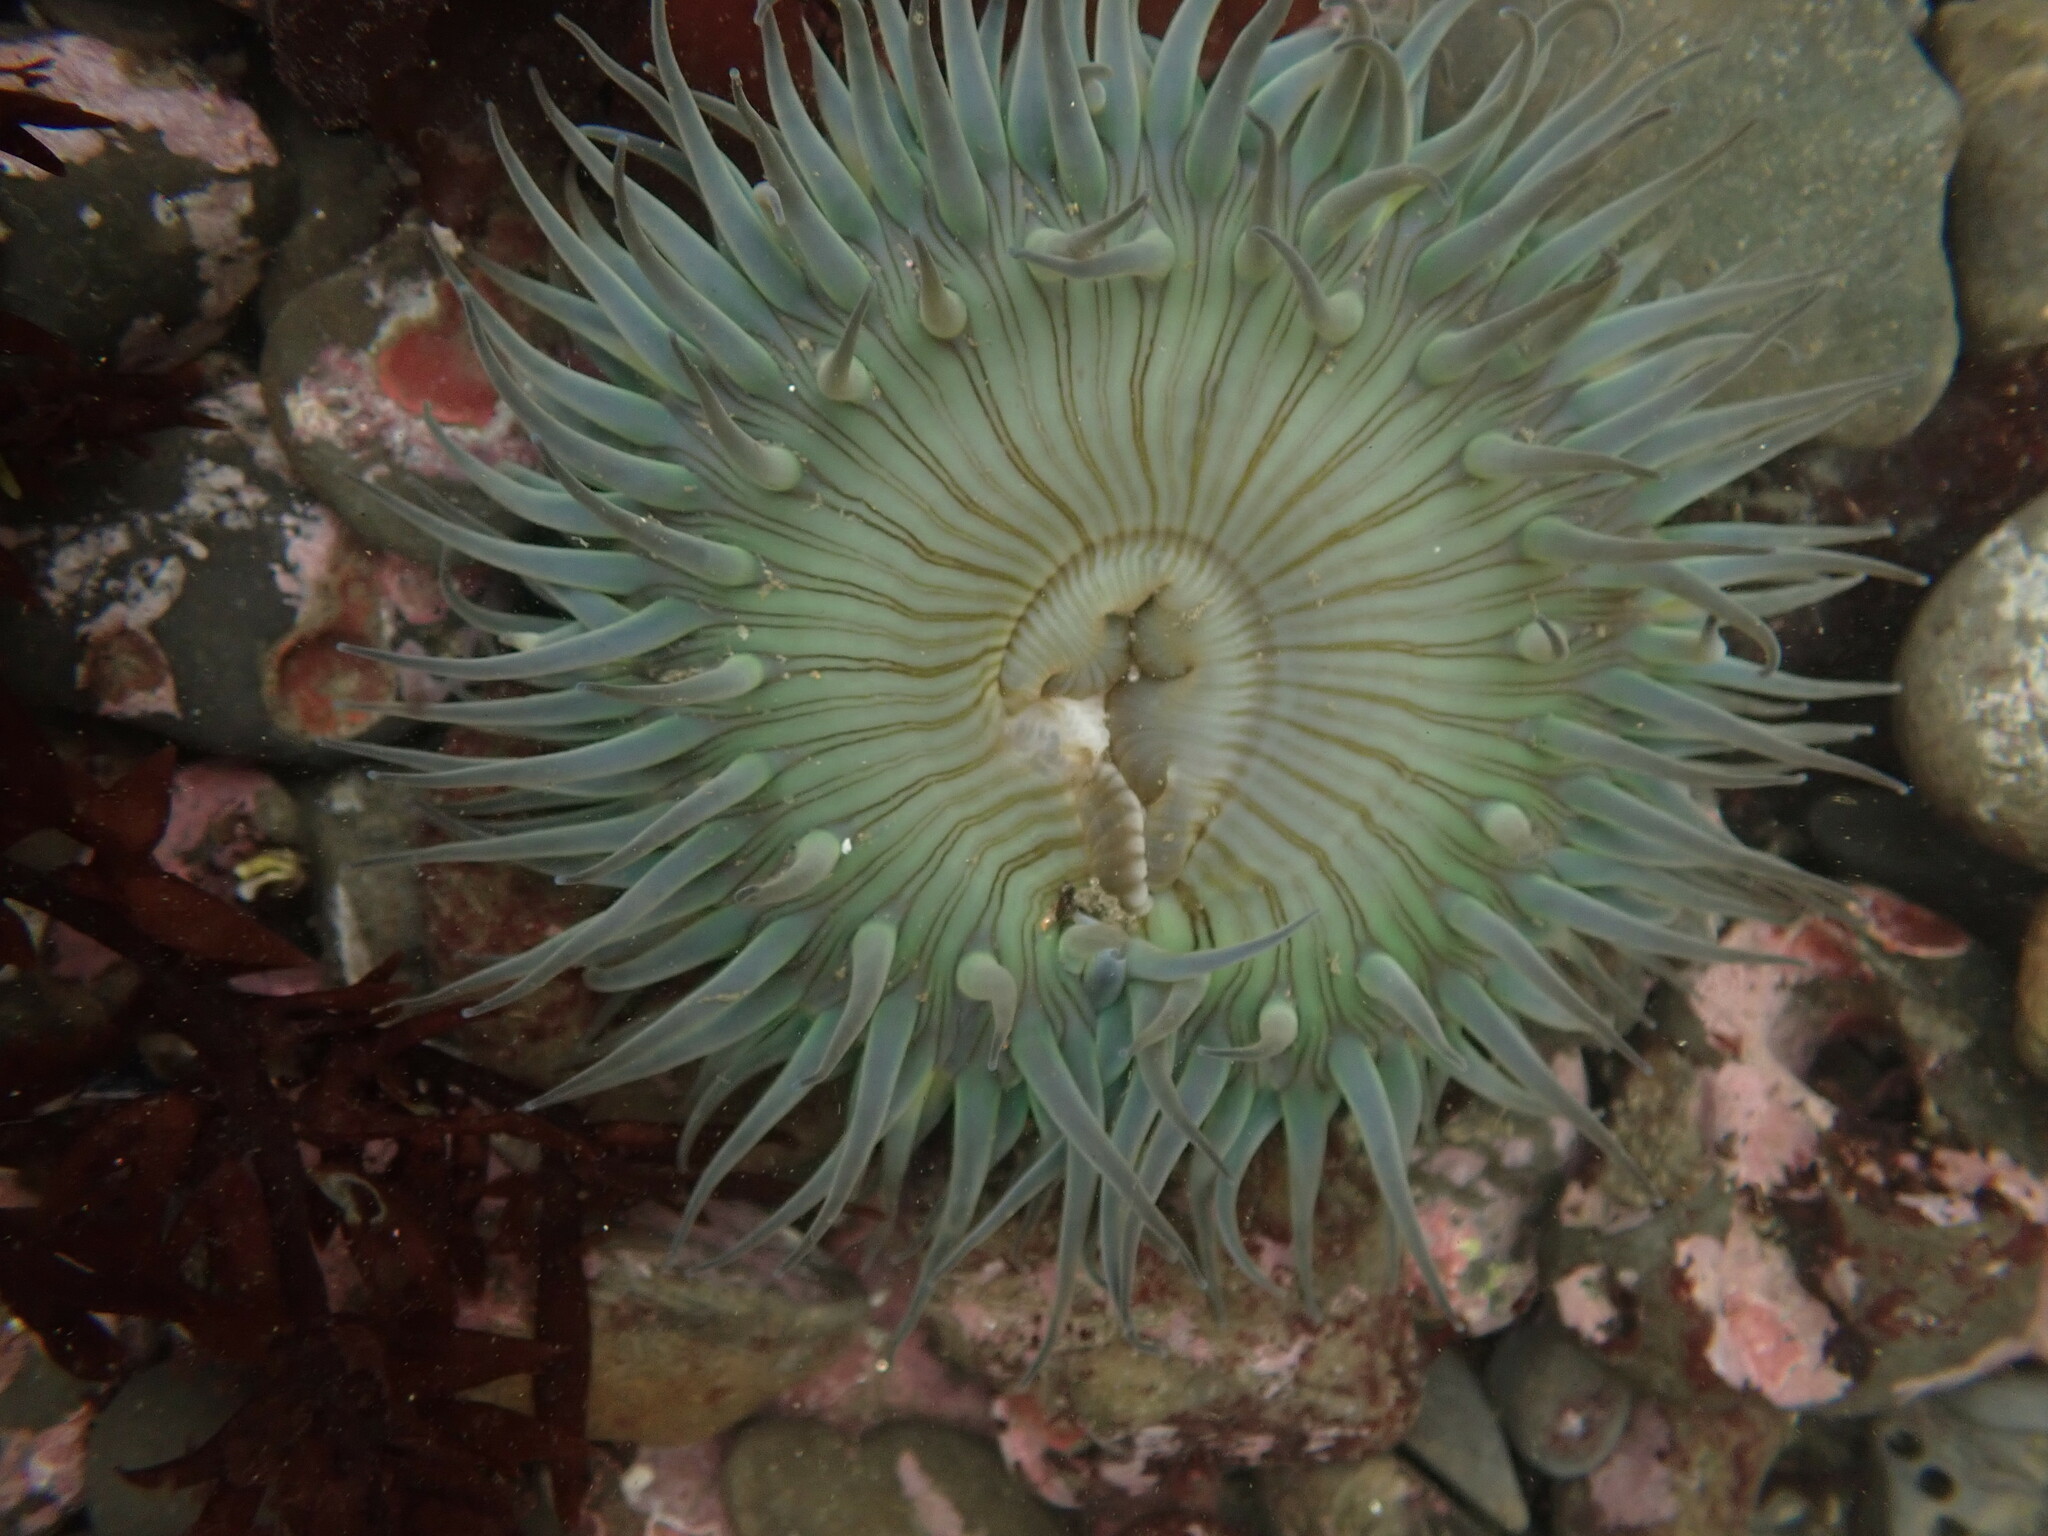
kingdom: Animalia
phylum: Cnidaria
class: Anthozoa
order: Actiniaria
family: Actiniidae
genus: Anthopleura
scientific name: Anthopleura sola
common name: Sun anemone
